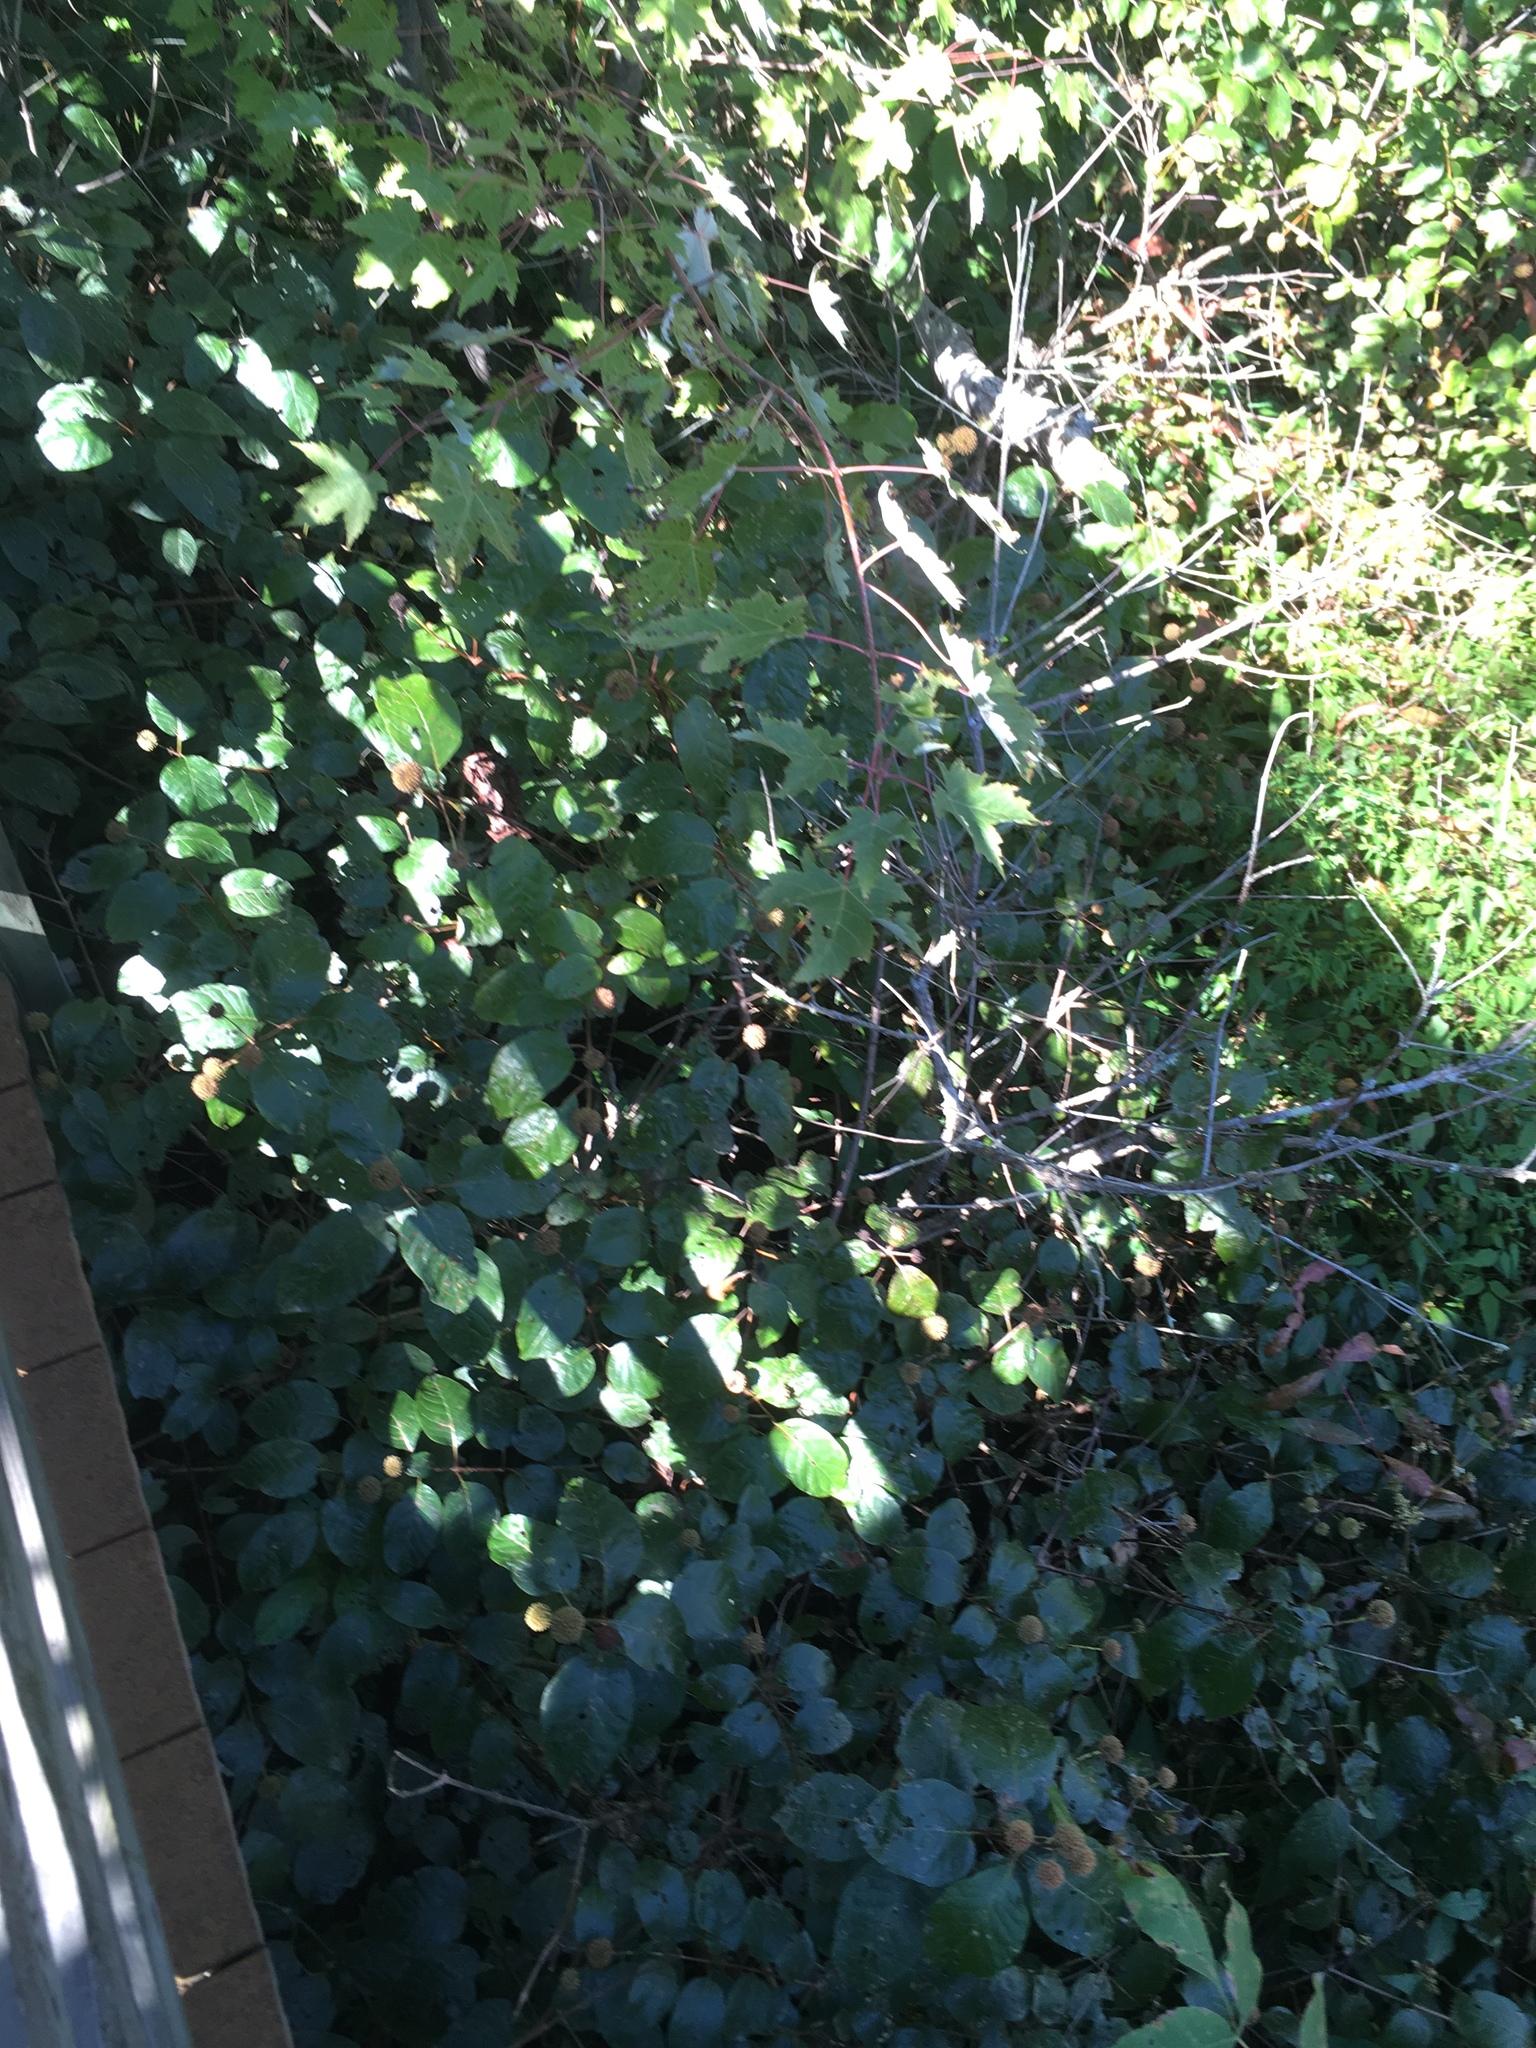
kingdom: Plantae
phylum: Tracheophyta
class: Magnoliopsida
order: Gentianales
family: Rubiaceae
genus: Cephalanthus
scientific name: Cephalanthus occidentalis
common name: Button-willow
